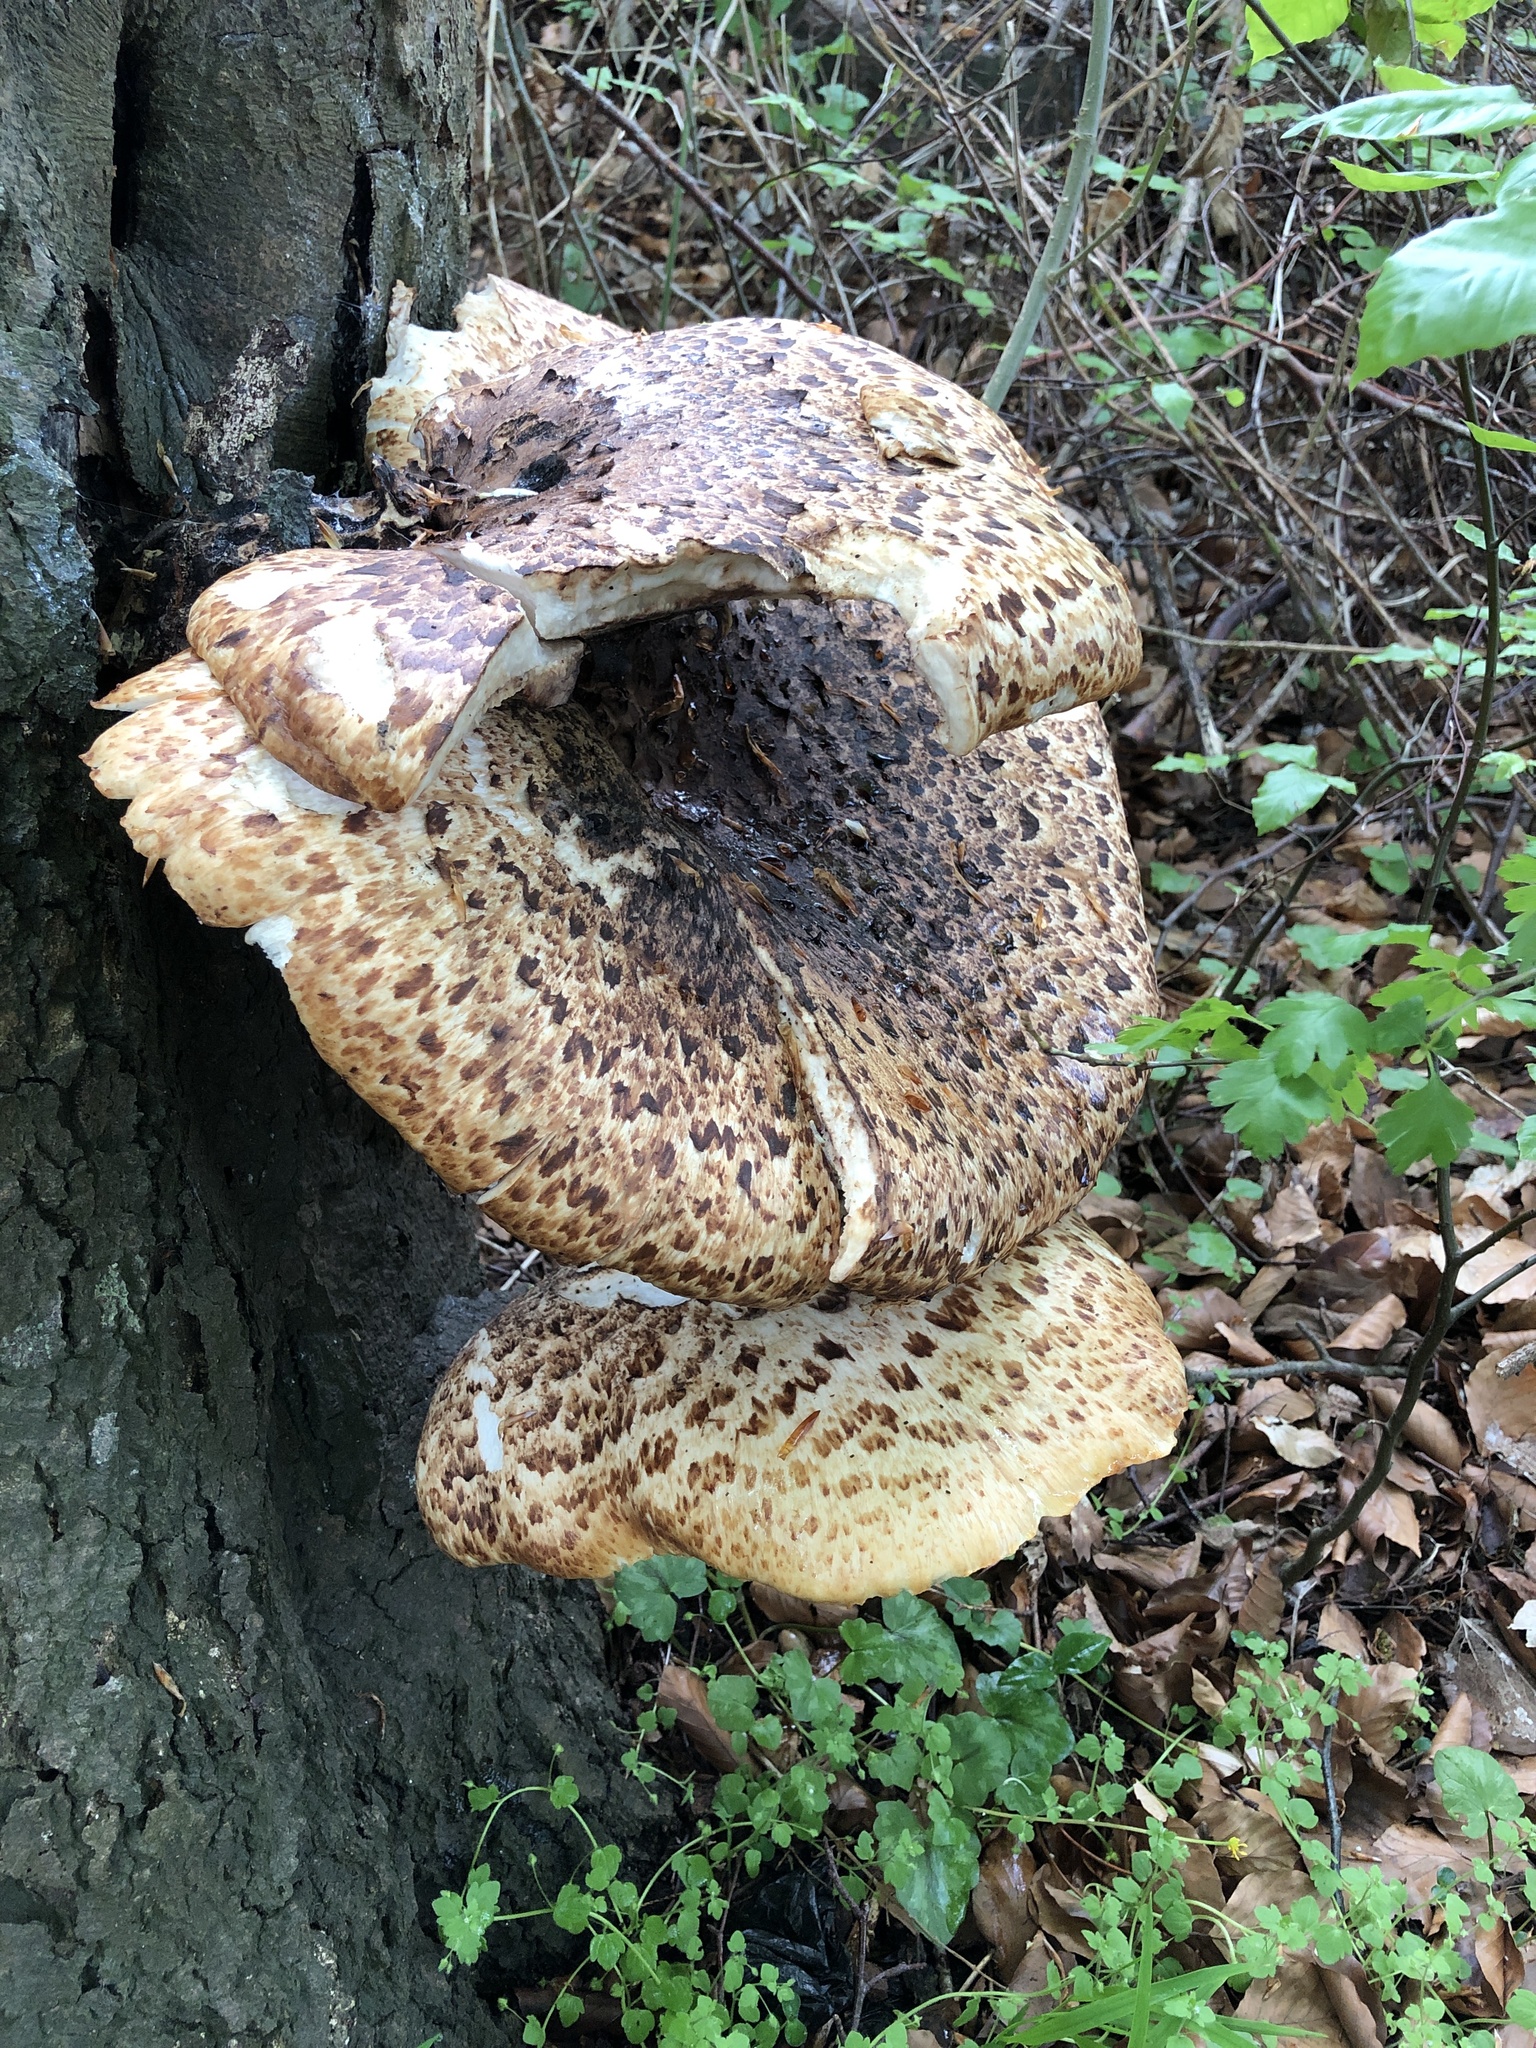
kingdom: Fungi
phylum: Basidiomycota
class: Agaricomycetes
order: Polyporales
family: Polyporaceae
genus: Cerioporus
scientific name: Cerioporus squamosus
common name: Dryad's saddle
